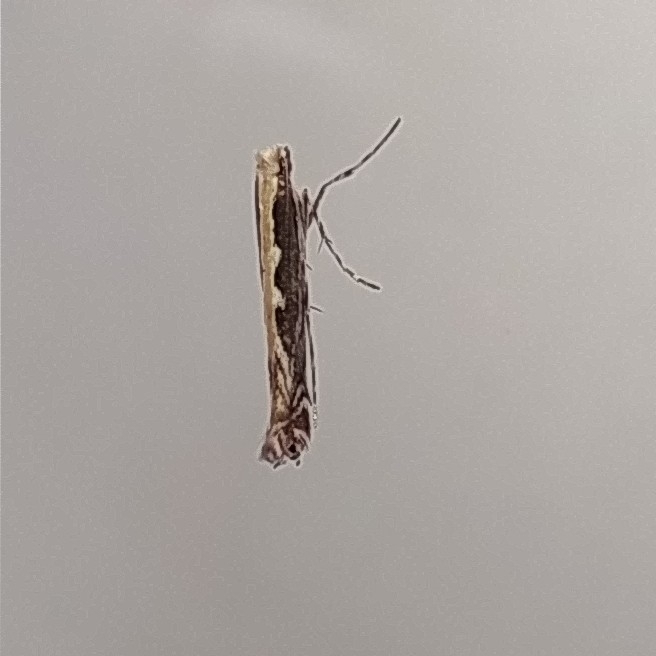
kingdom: Animalia
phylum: Arthropoda
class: Insecta
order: Lepidoptera
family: Gracillariidae
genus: Micrurapteryx
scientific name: Micrurapteryx gradatella
